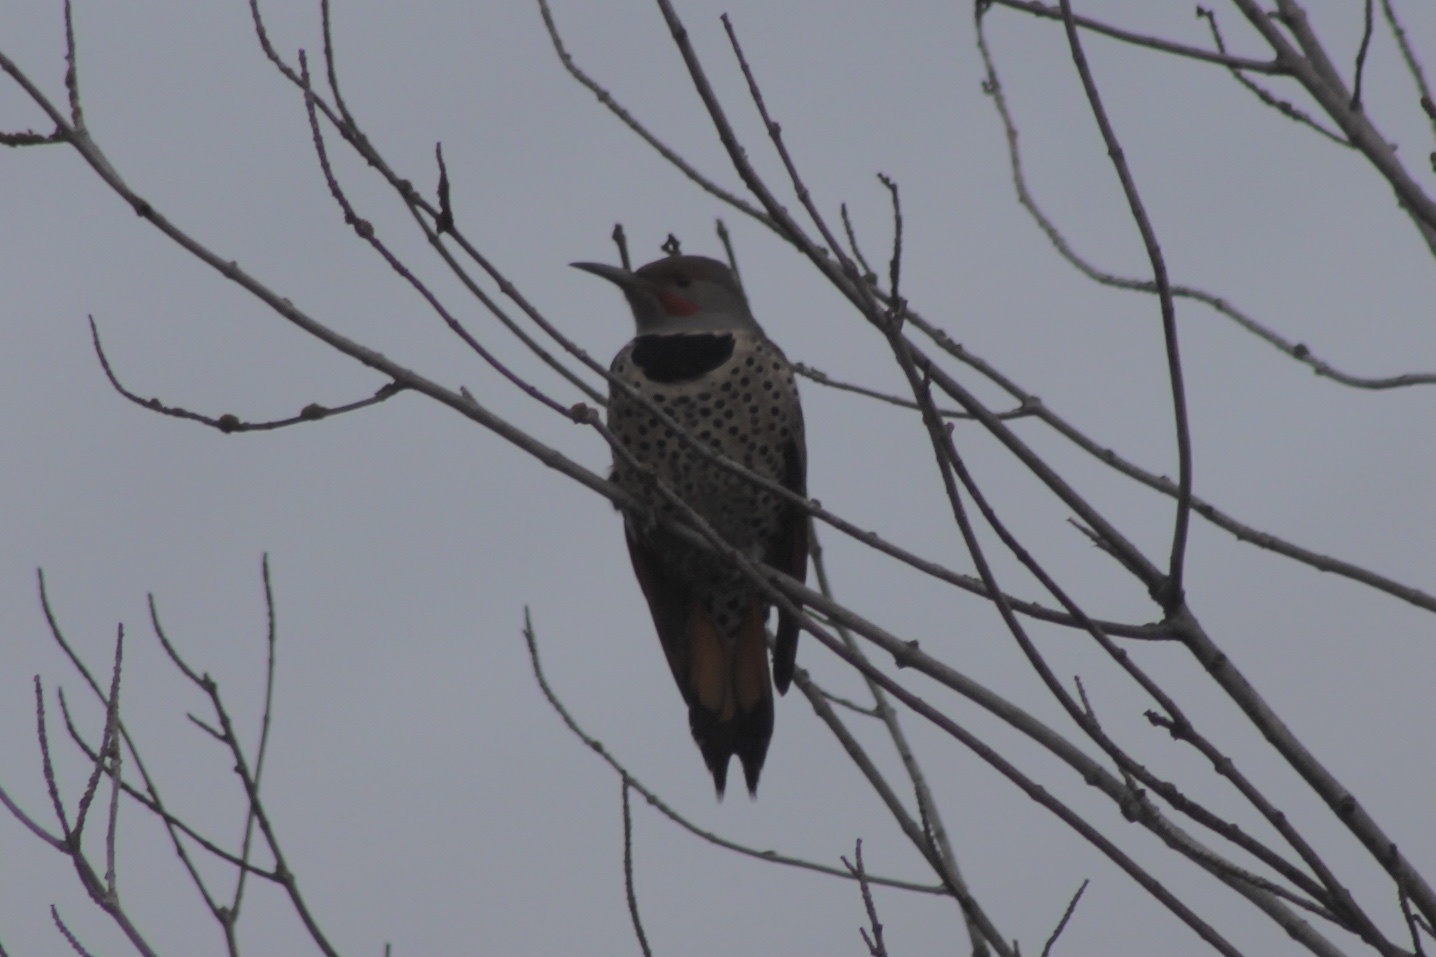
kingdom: Animalia
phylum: Chordata
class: Aves
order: Piciformes
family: Picidae
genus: Colaptes
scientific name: Colaptes
